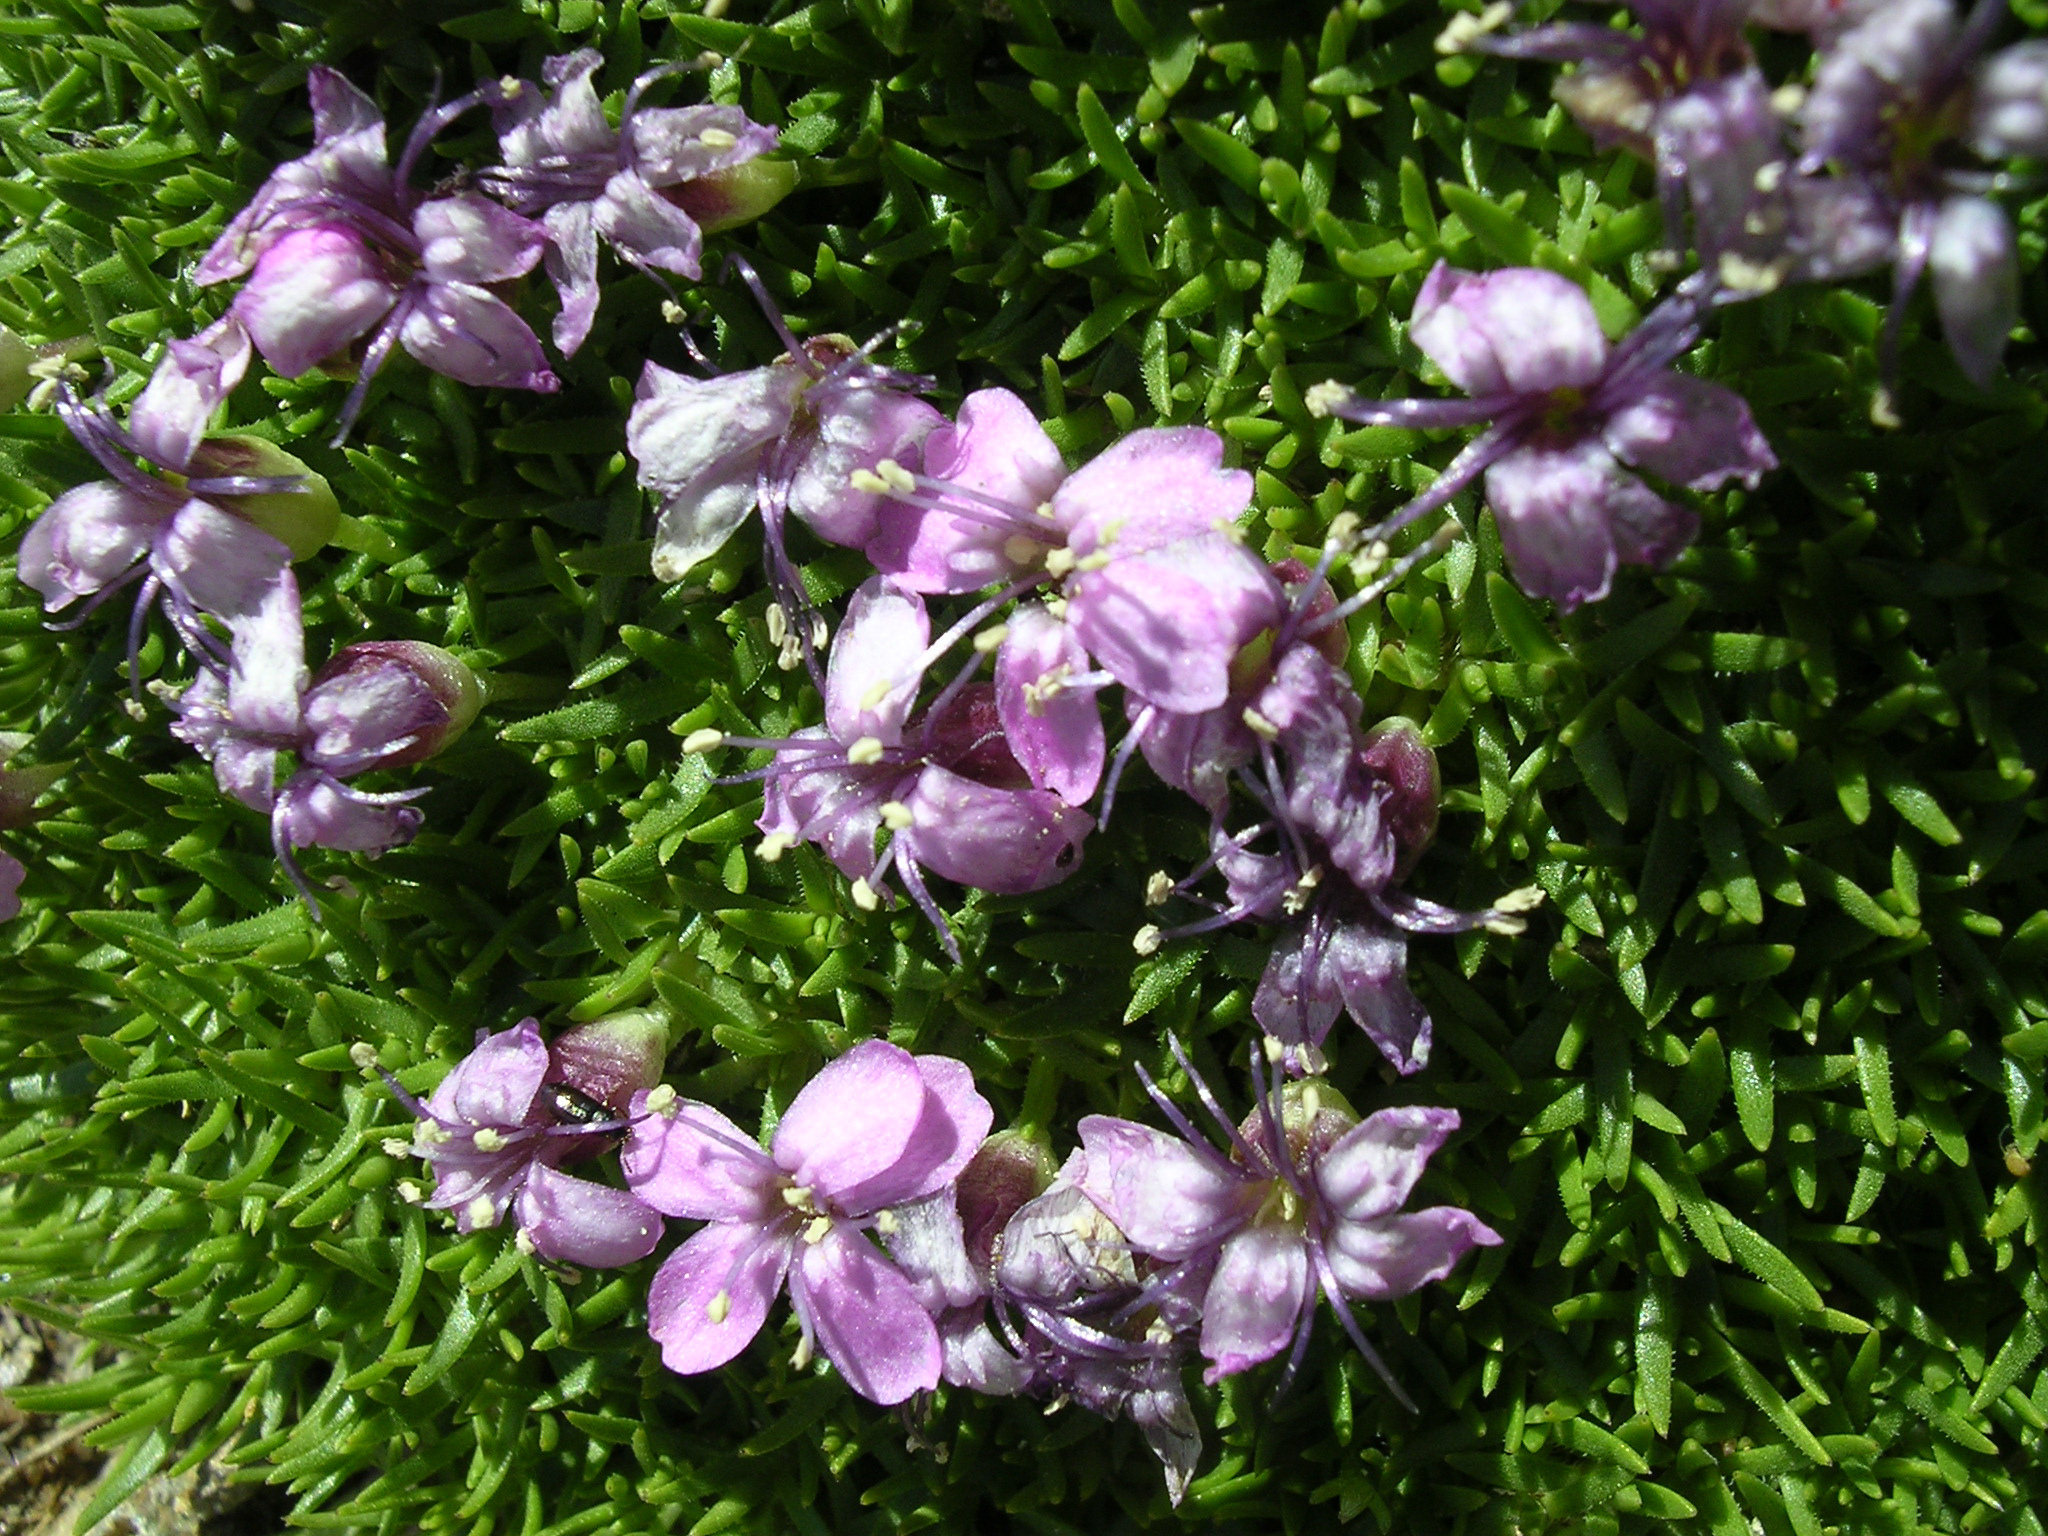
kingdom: Plantae
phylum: Tracheophyta
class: Magnoliopsida
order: Caryophyllales
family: Caryophyllaceae
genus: Silene
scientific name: Silene acaulis
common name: Moss campion
